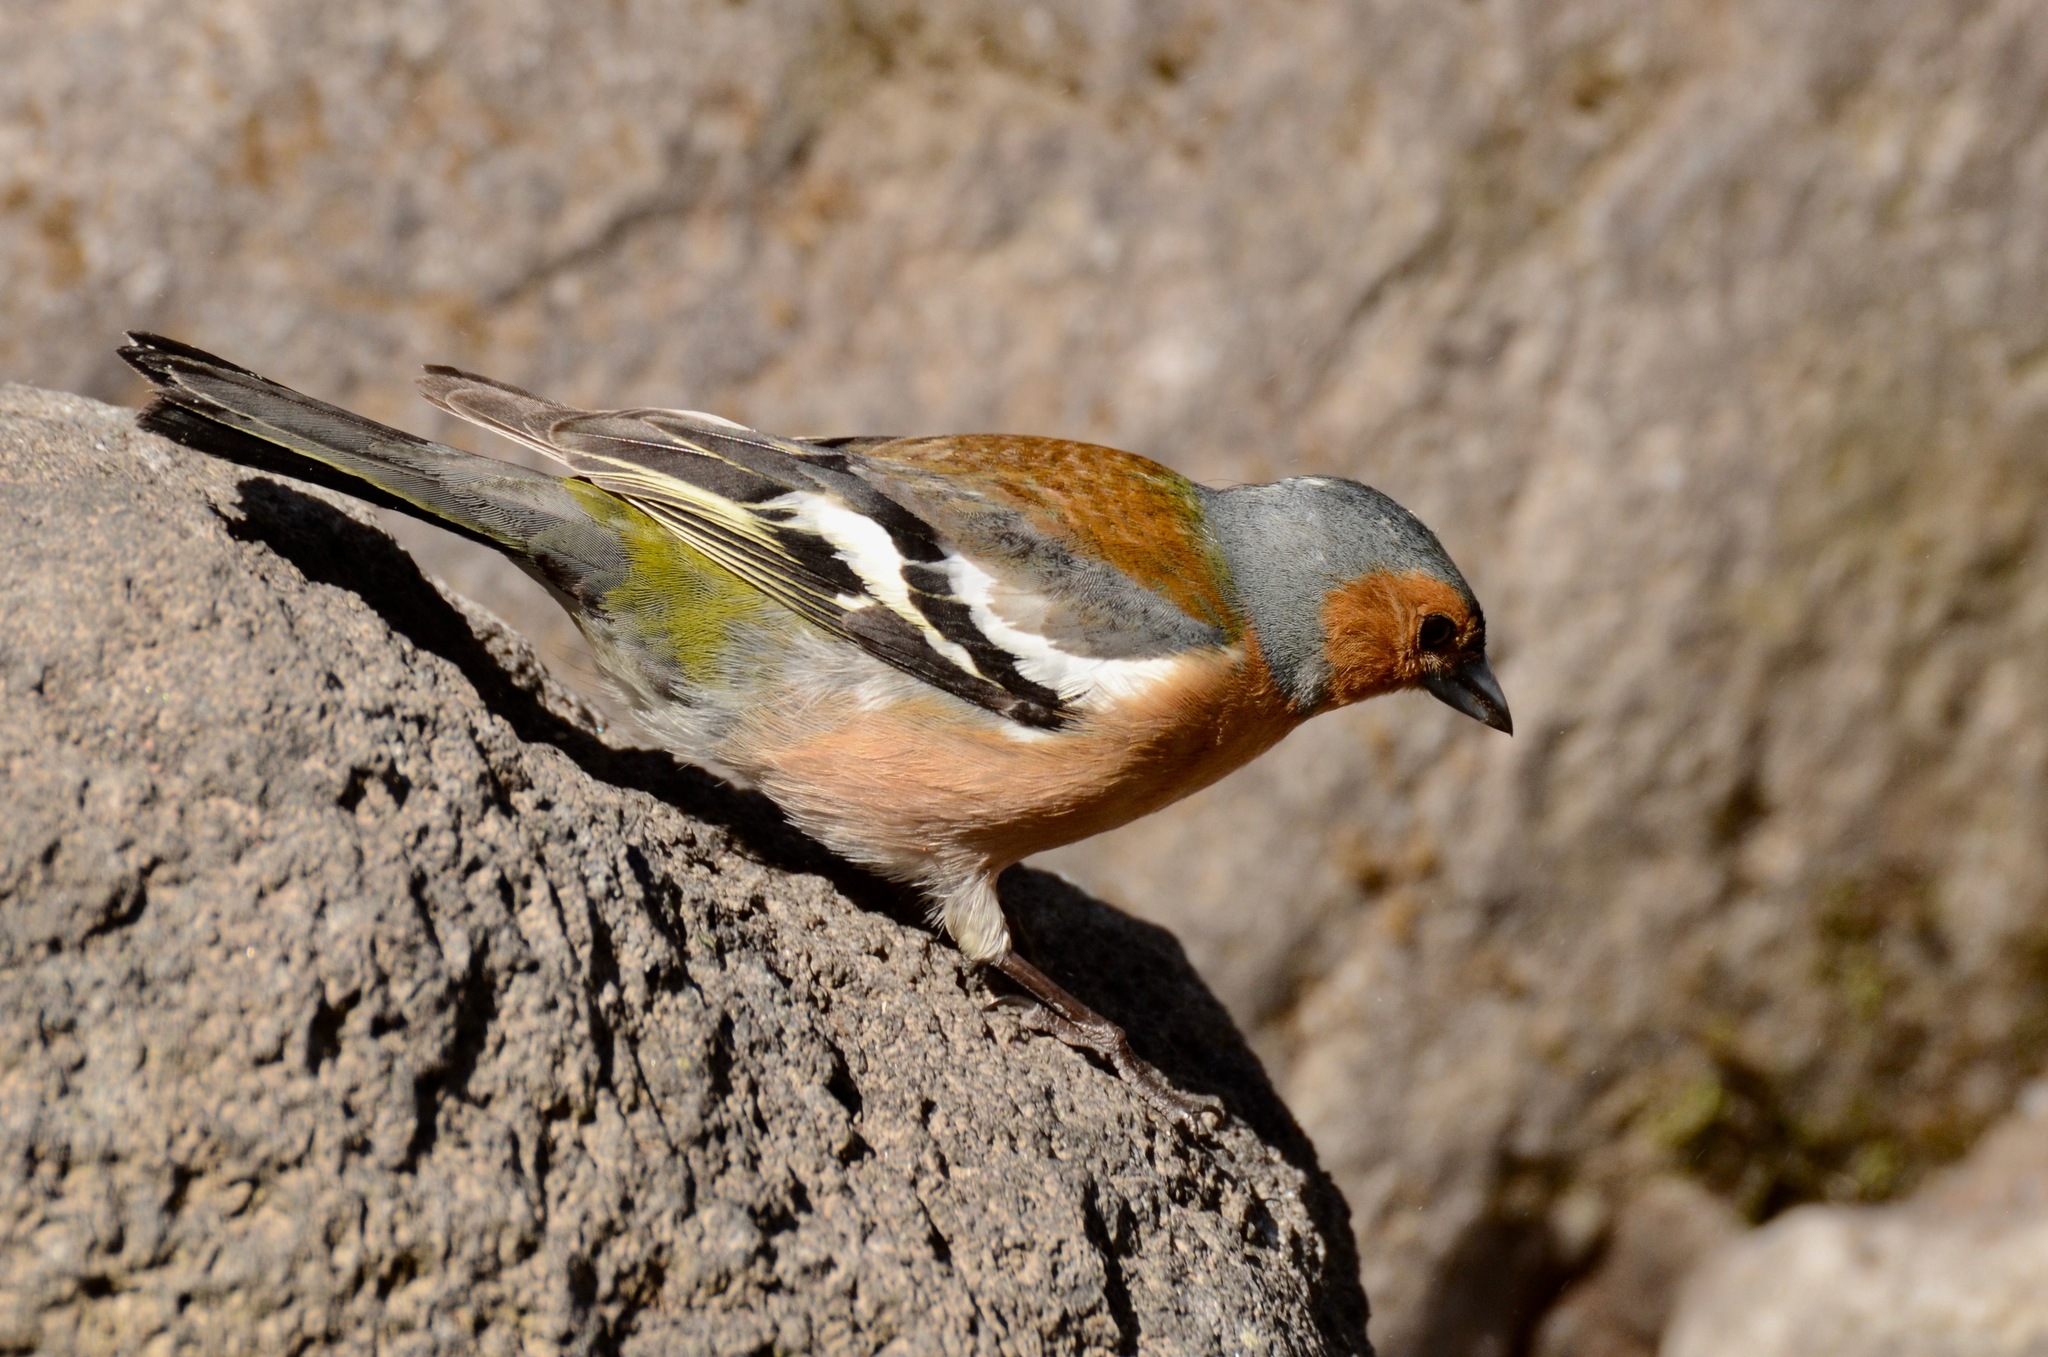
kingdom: Animalia
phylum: Chordata
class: Aves
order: Passeriformes
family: Fringillidae
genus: Fringilla
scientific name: Fringilla coelebs
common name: Common chaffinch
